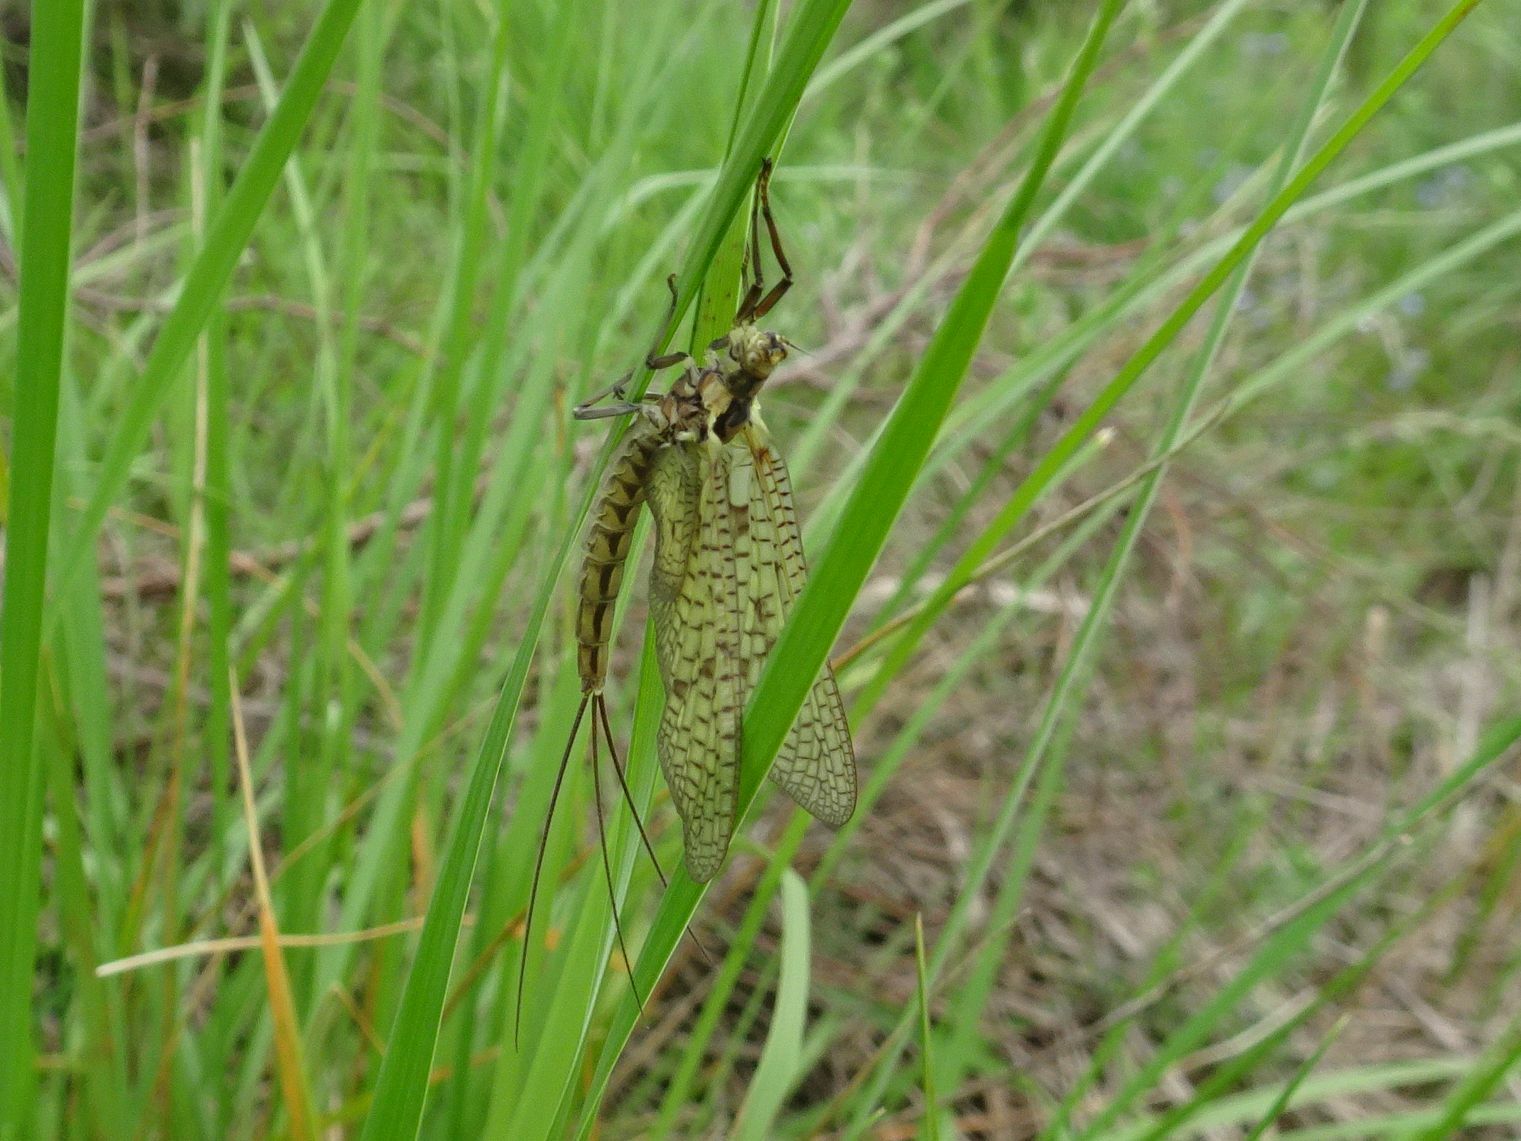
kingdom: Animalia
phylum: Arthropoda
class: Insecta
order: Ephemeroptera
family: Ephemeridae
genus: Ephemera
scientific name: Ephemera vulgata
